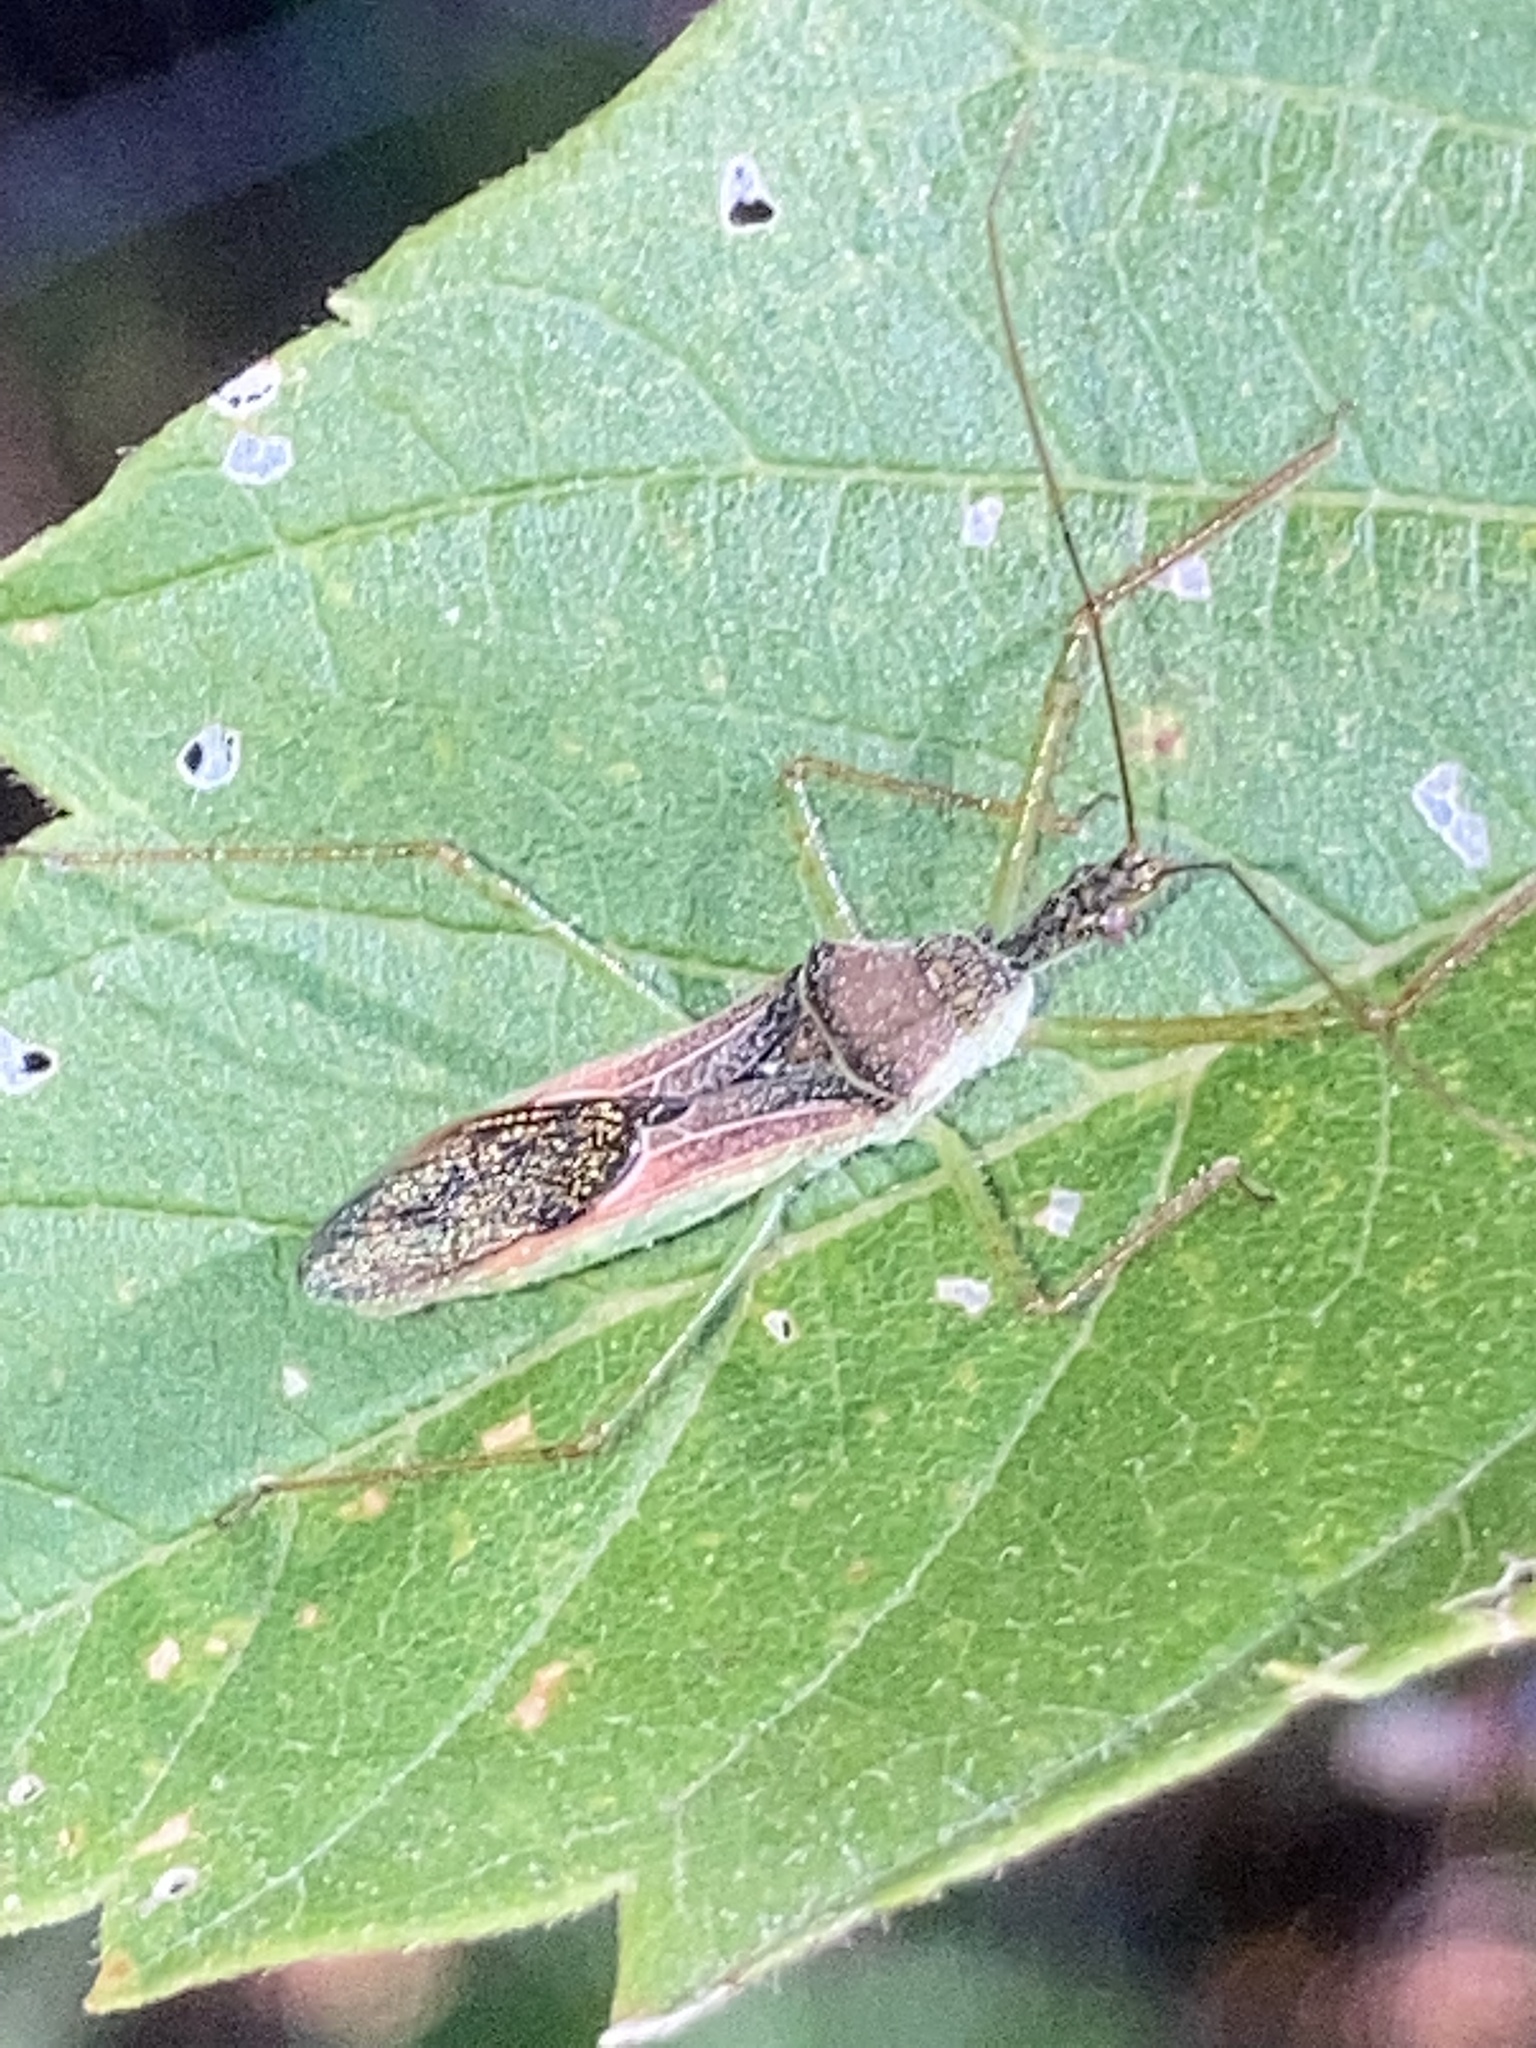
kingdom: Animalia
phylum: Arthropoda
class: Insecta
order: Hemiptera
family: Reduviidae
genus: Zelus
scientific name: Zelus renardii
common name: Assassin bug
